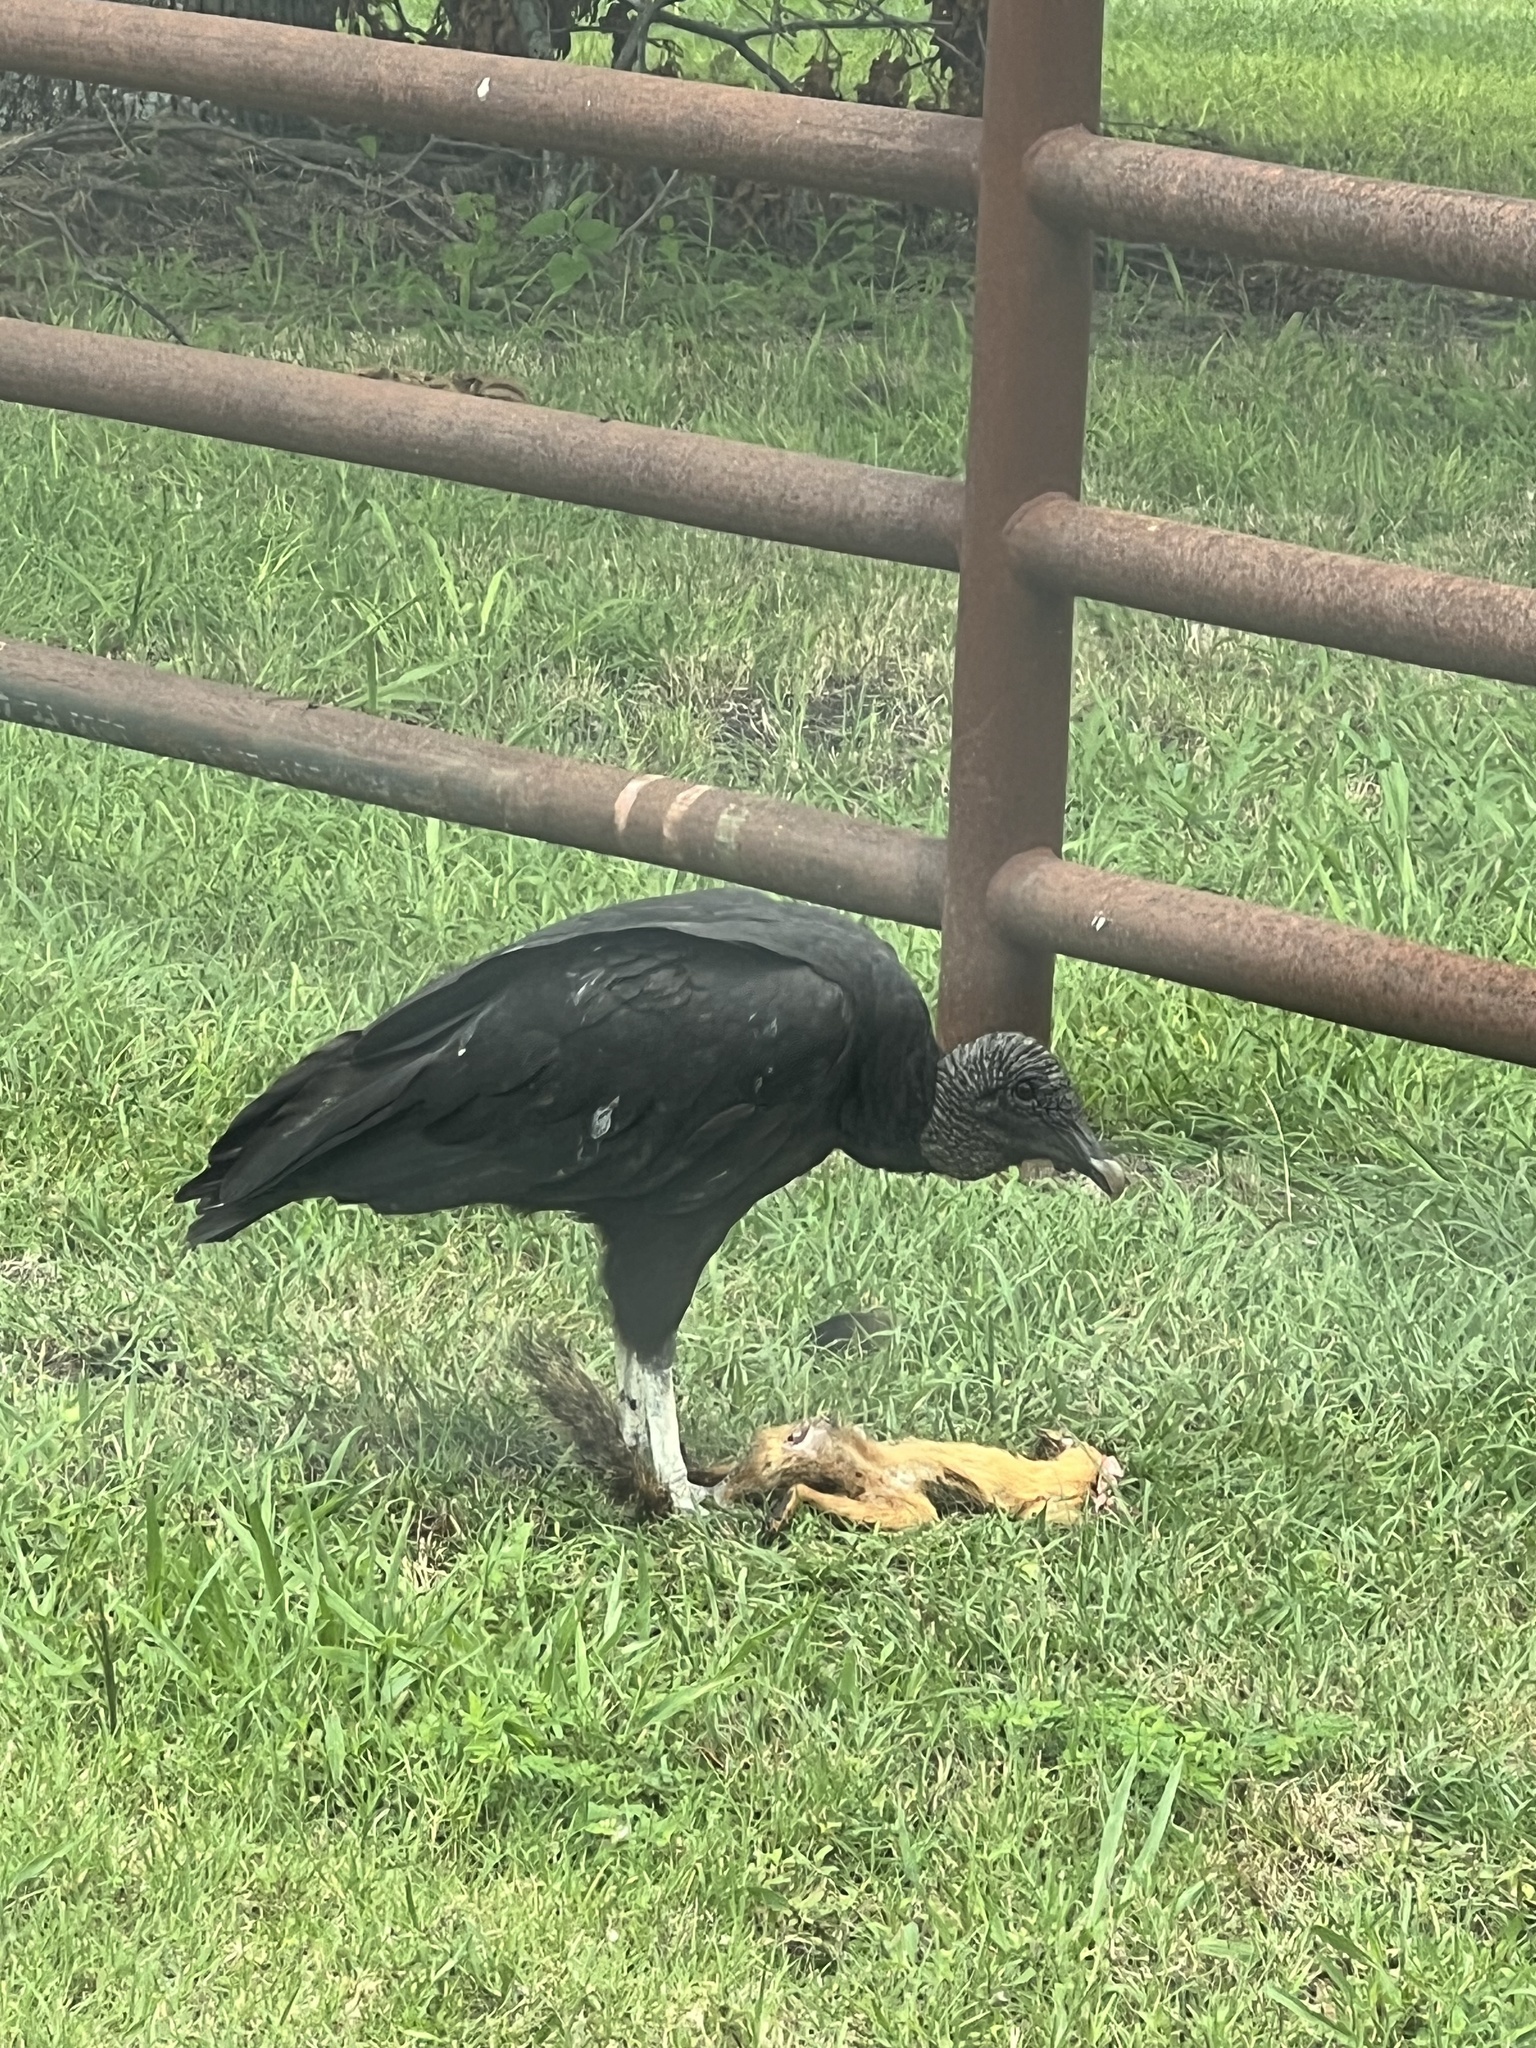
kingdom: Animalia
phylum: Chordata
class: Aves
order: Accipitriformes
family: Cathartidae
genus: Coragyps
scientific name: Coragyps atratus
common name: Black vulture
